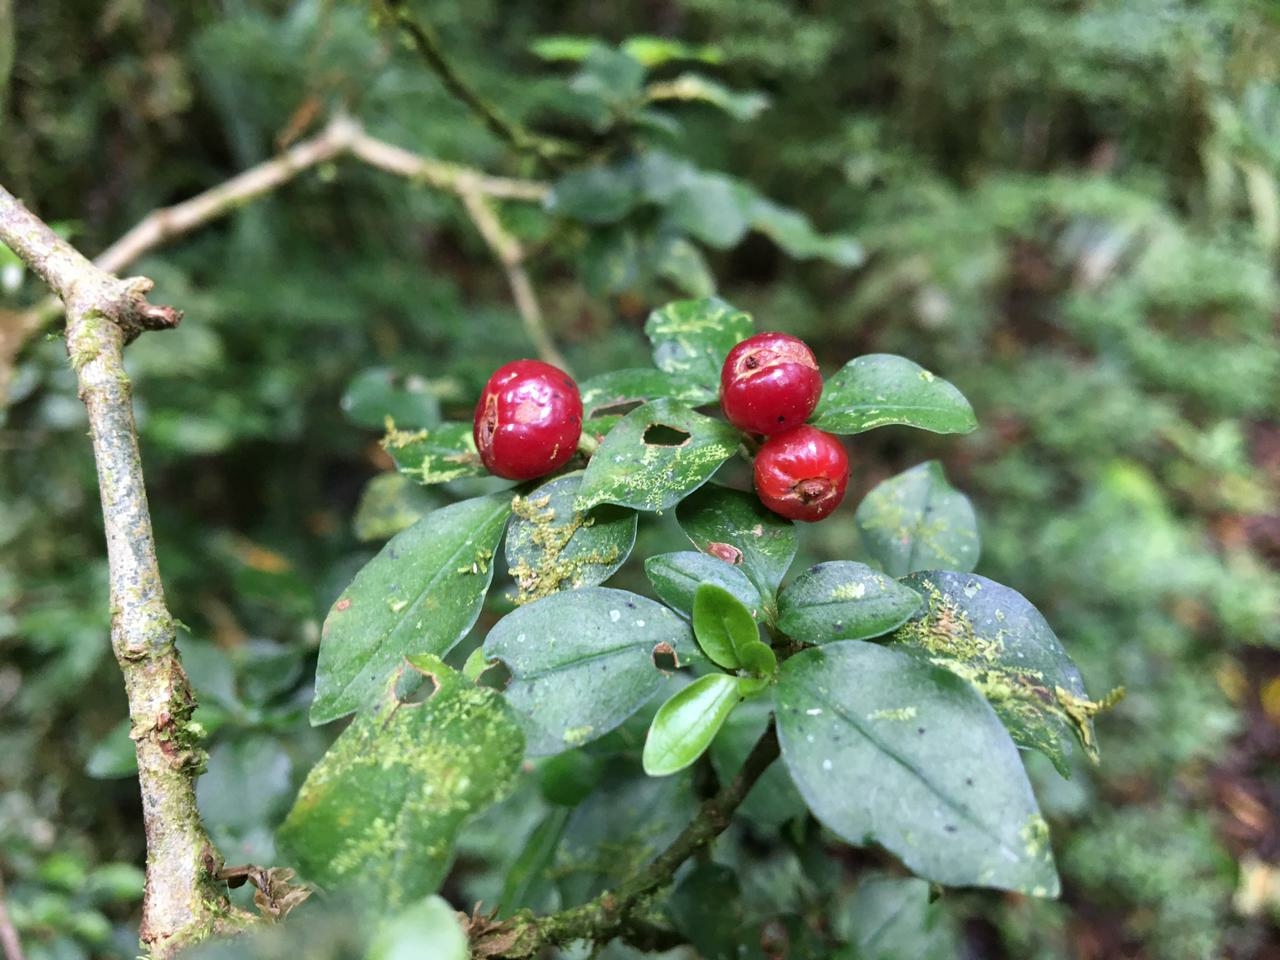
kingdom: Plantae
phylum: Tracheophyta
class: Magnoliopsida
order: Gentianales
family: Rubiaceae
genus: Psychotria
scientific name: Psychotria parvifolia
